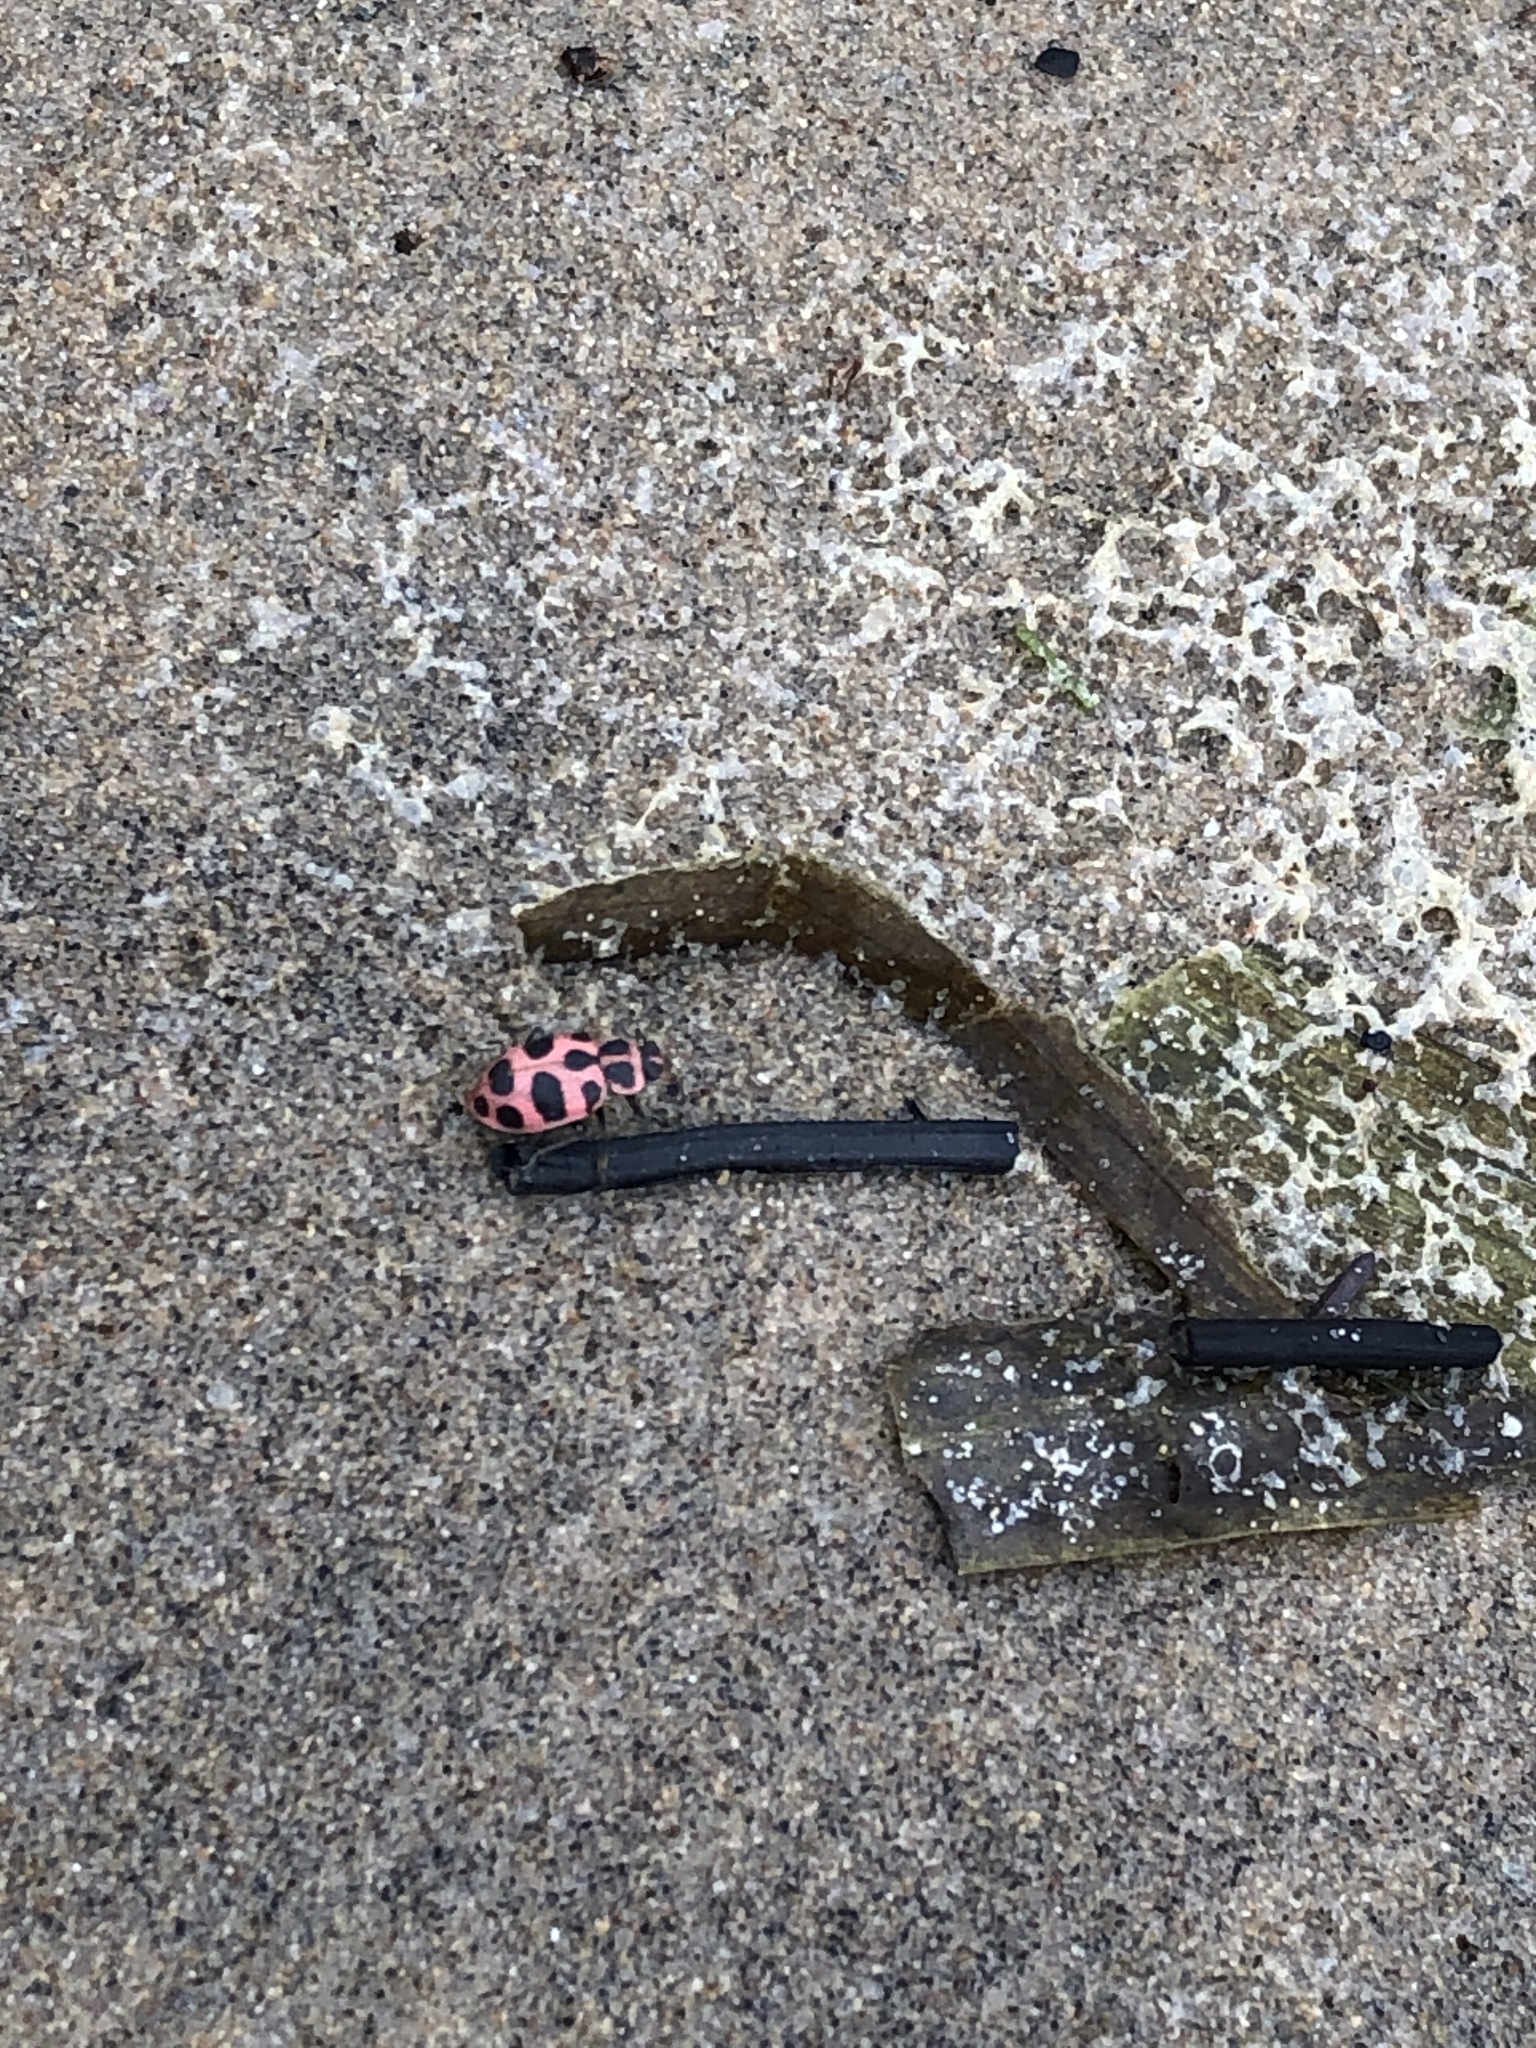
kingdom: Animalia
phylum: Arthropoda
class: Insecta
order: Coleoptera
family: Coccinellidae
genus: Coleomegilla
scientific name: Coleomegilla maculata
